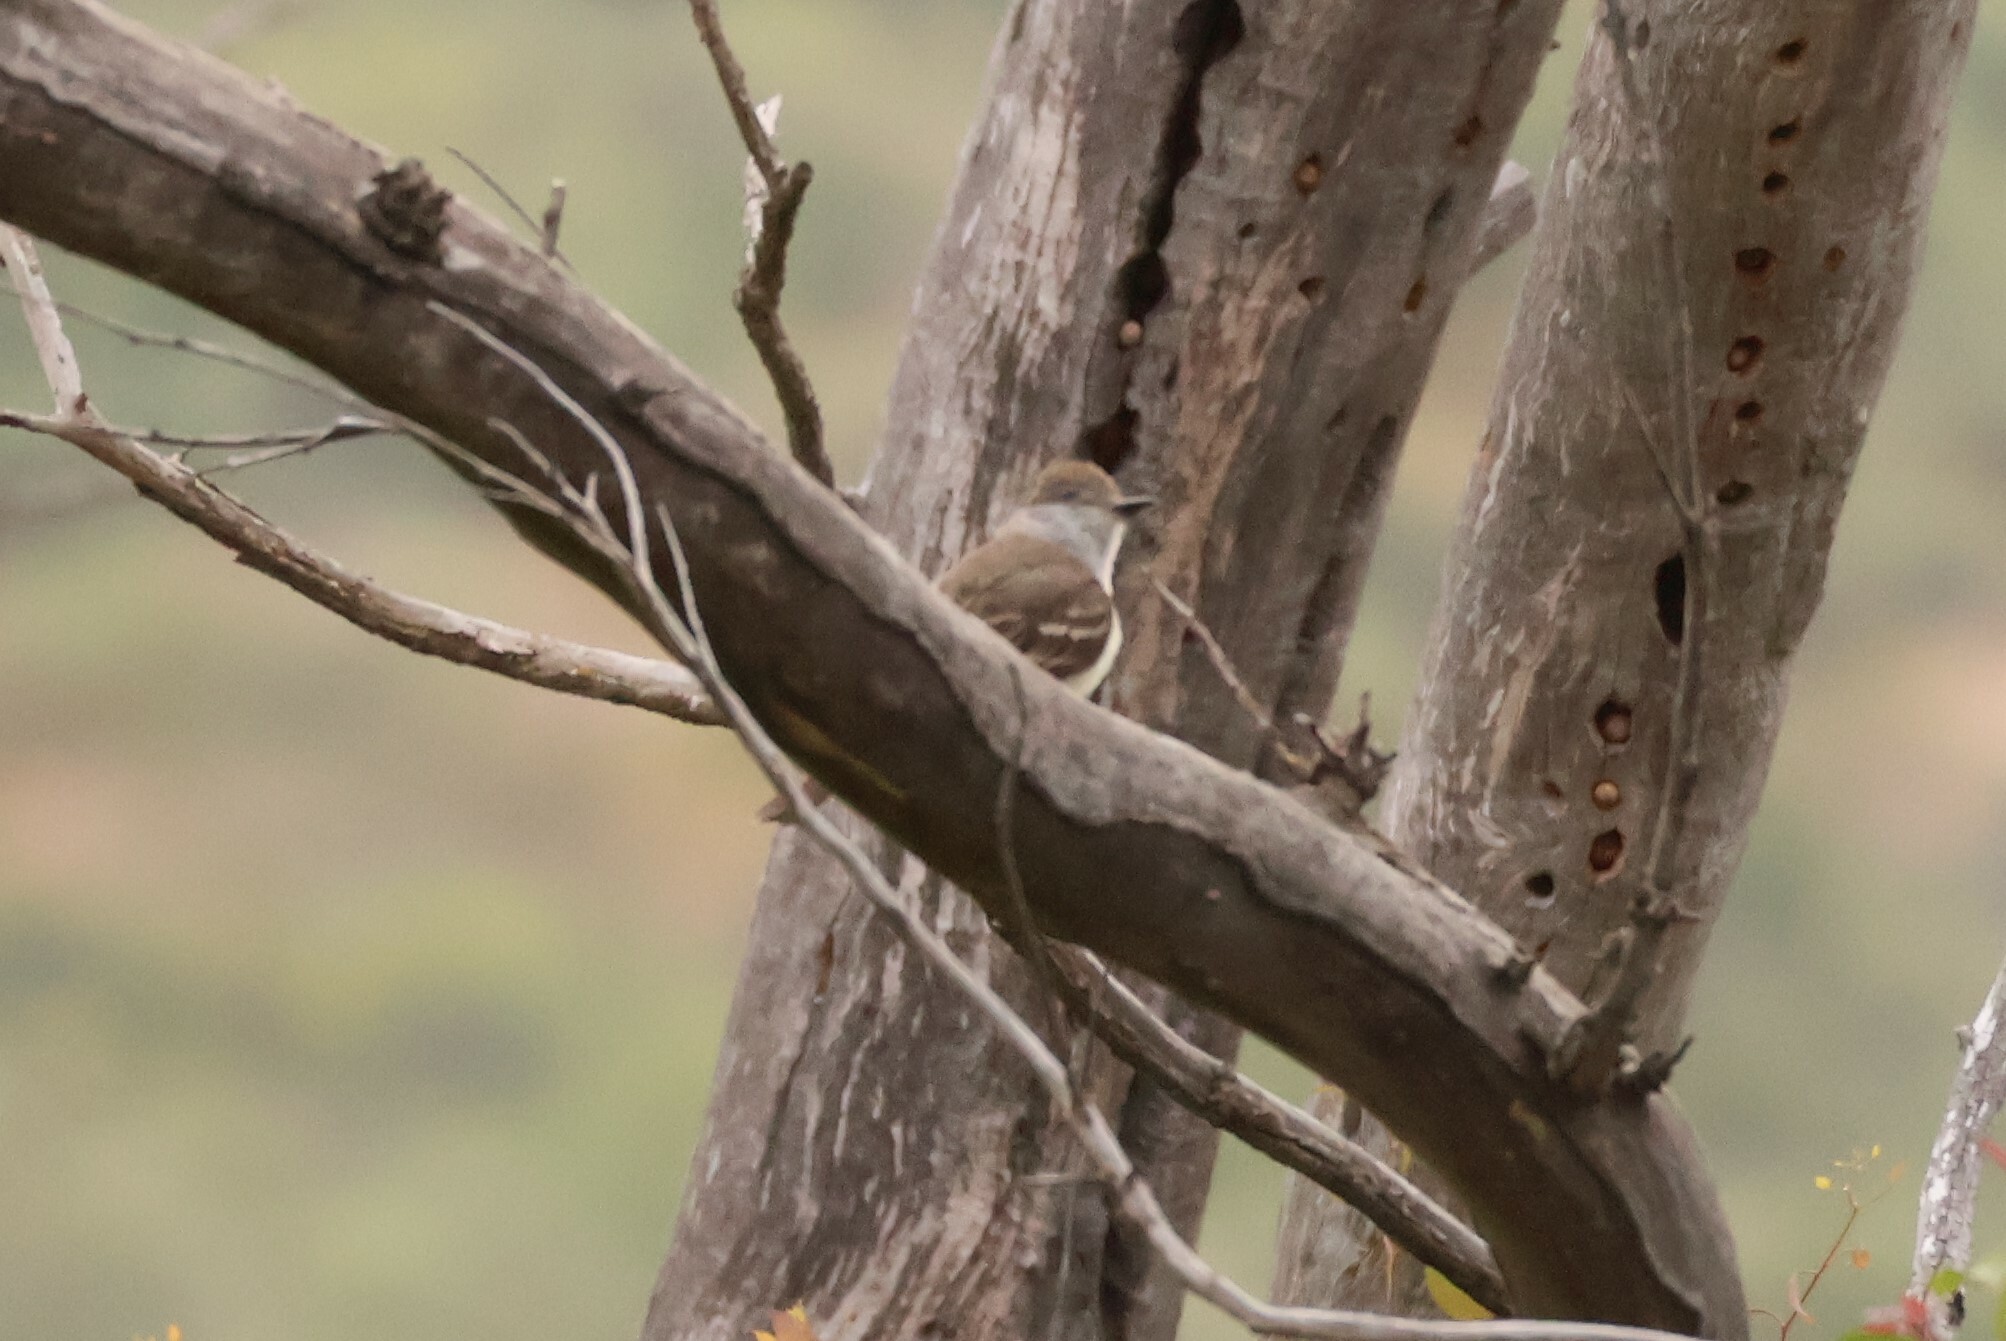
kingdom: Animalia
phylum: Chordata
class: Aves
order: Passeriformes
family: Tyrannidae
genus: Myiarchus
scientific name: Myiarchus cinerascens
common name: Ash-throated flycatcher
